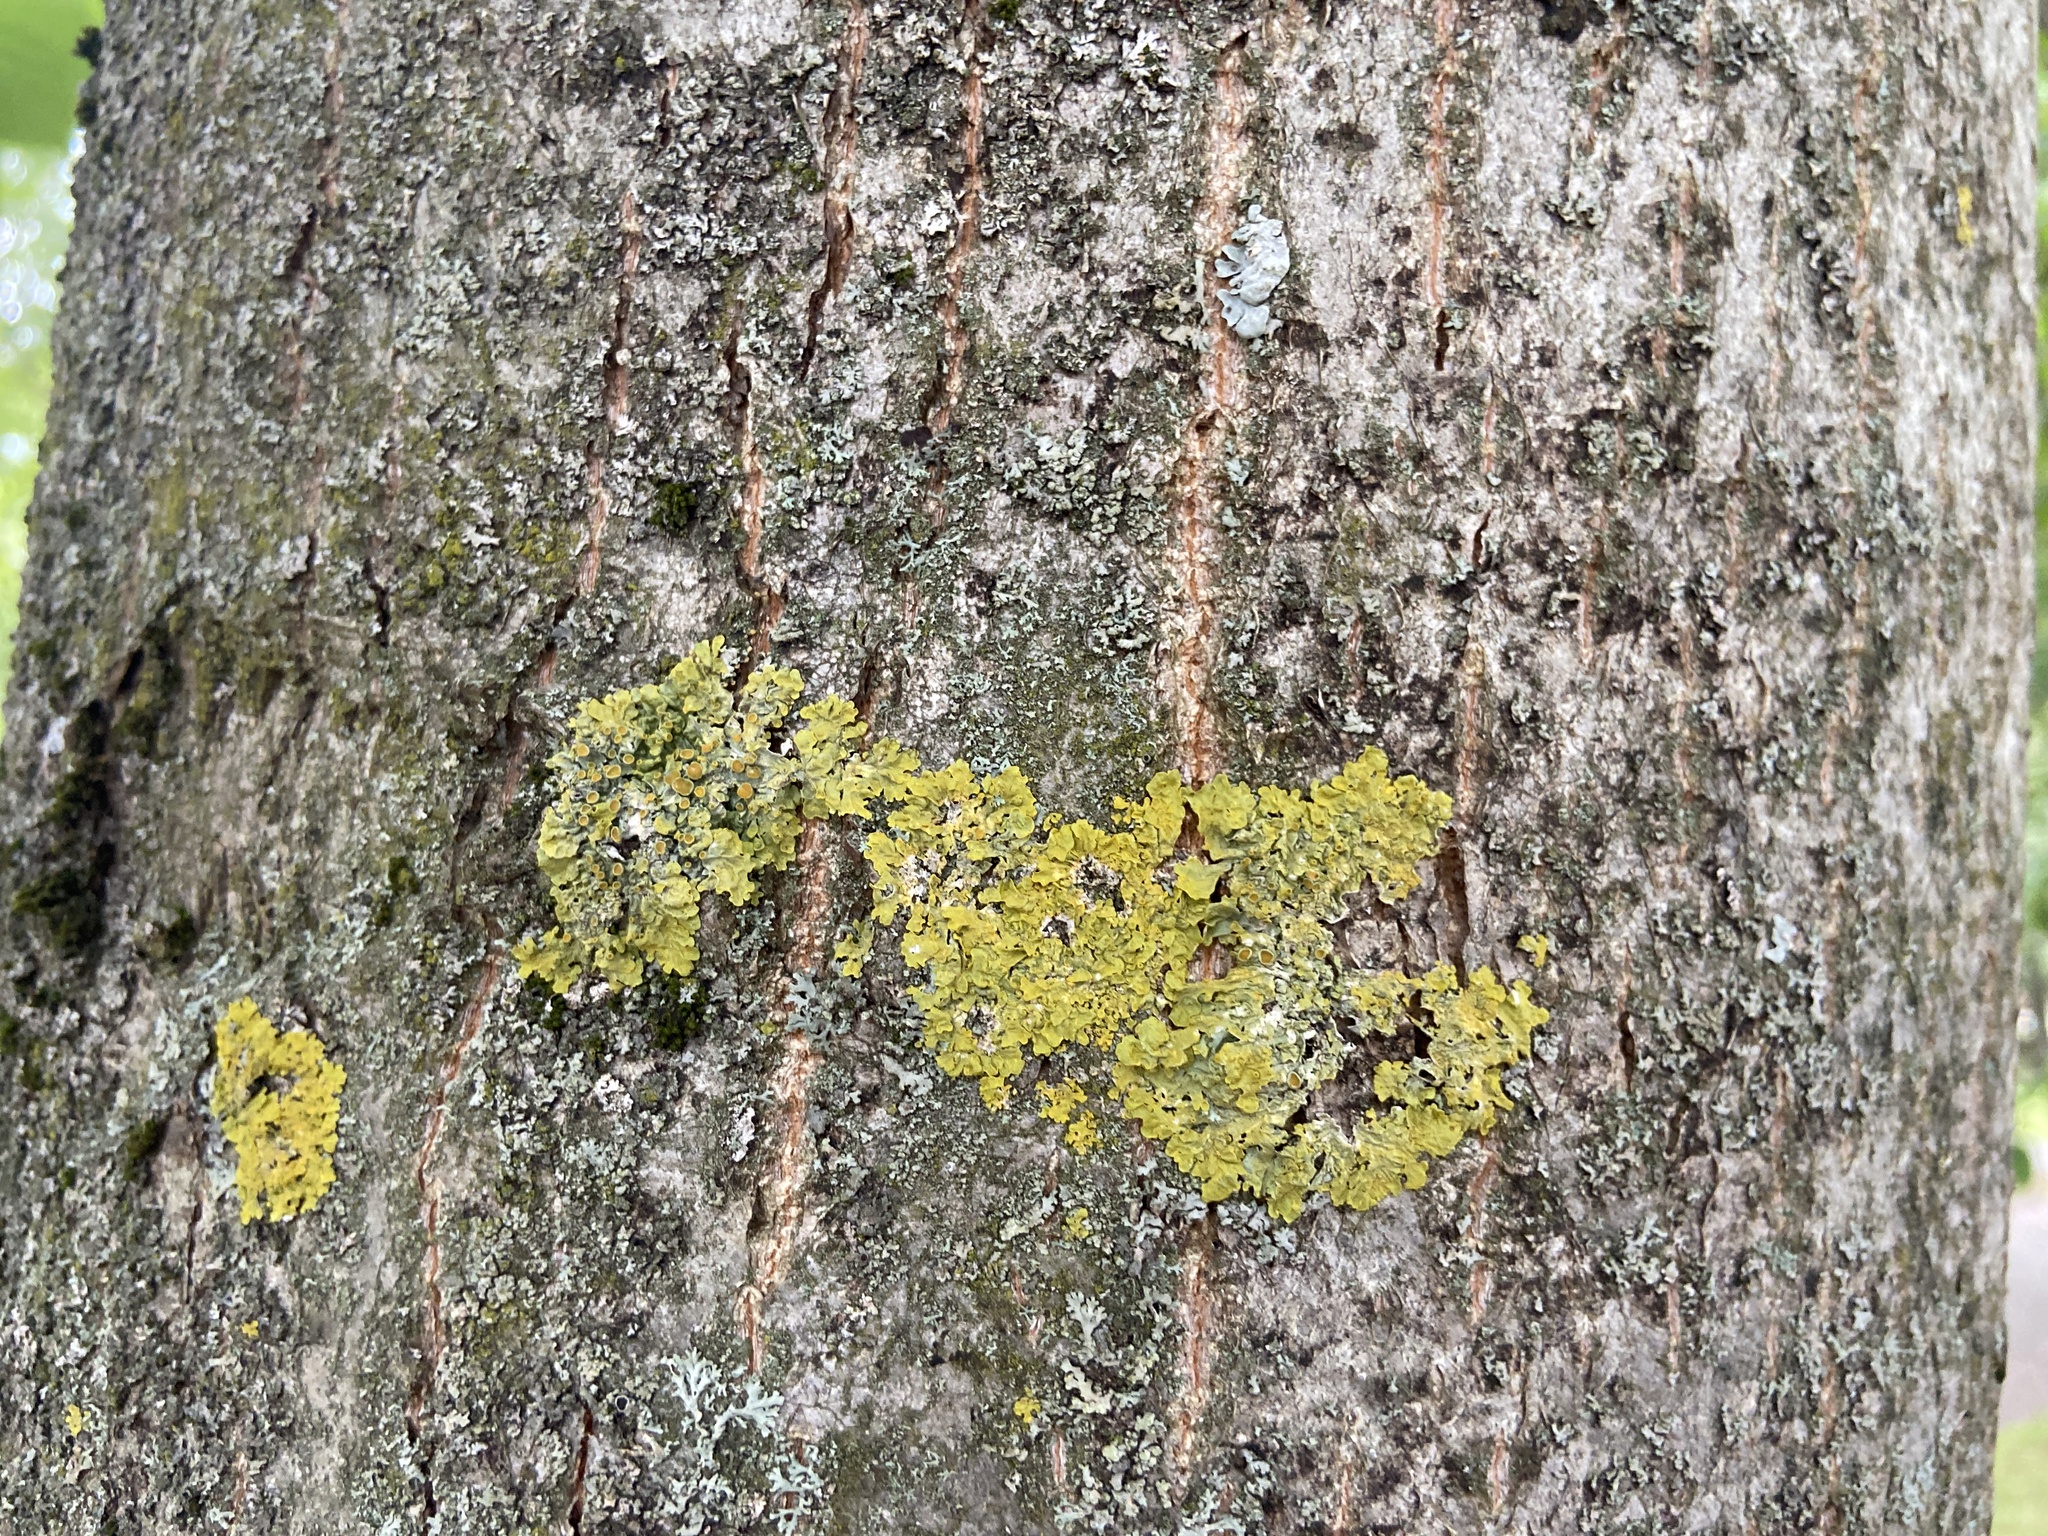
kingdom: Fungi
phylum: Ascomycota
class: Lecanoromycetes
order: Teloschistales
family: Teloschistaceae
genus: Xanthoria
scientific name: Xanthoria parietina
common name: Common orange lichen
